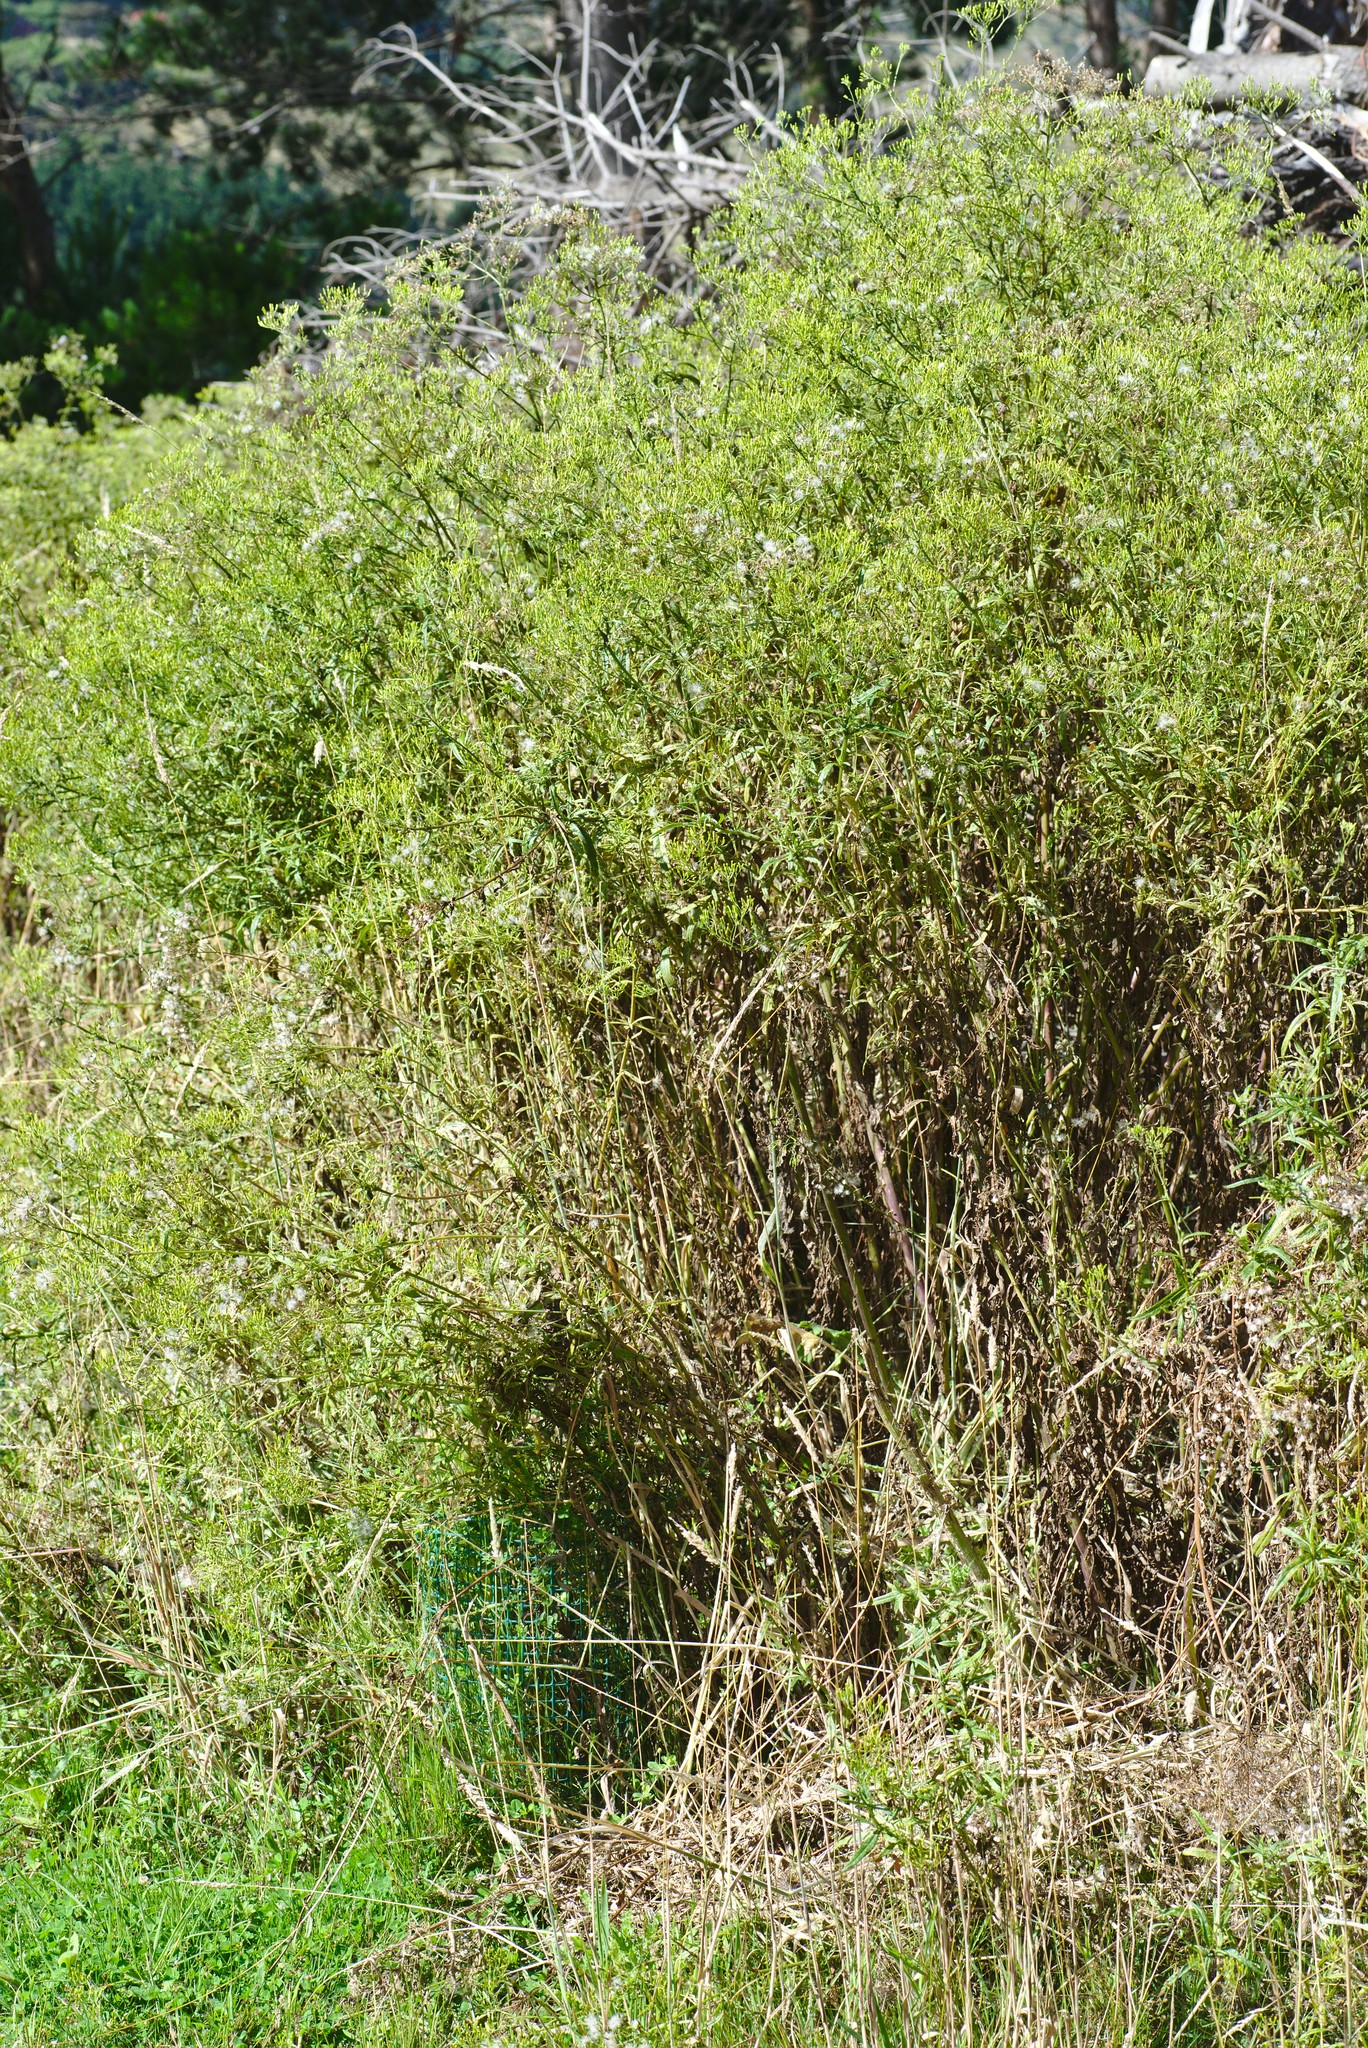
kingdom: Plantae
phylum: Tracheophyta
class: Magnoliopsida
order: Asterales
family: Asteraceae
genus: Senecio
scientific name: Senecio minimus
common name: Toothed fireweed
